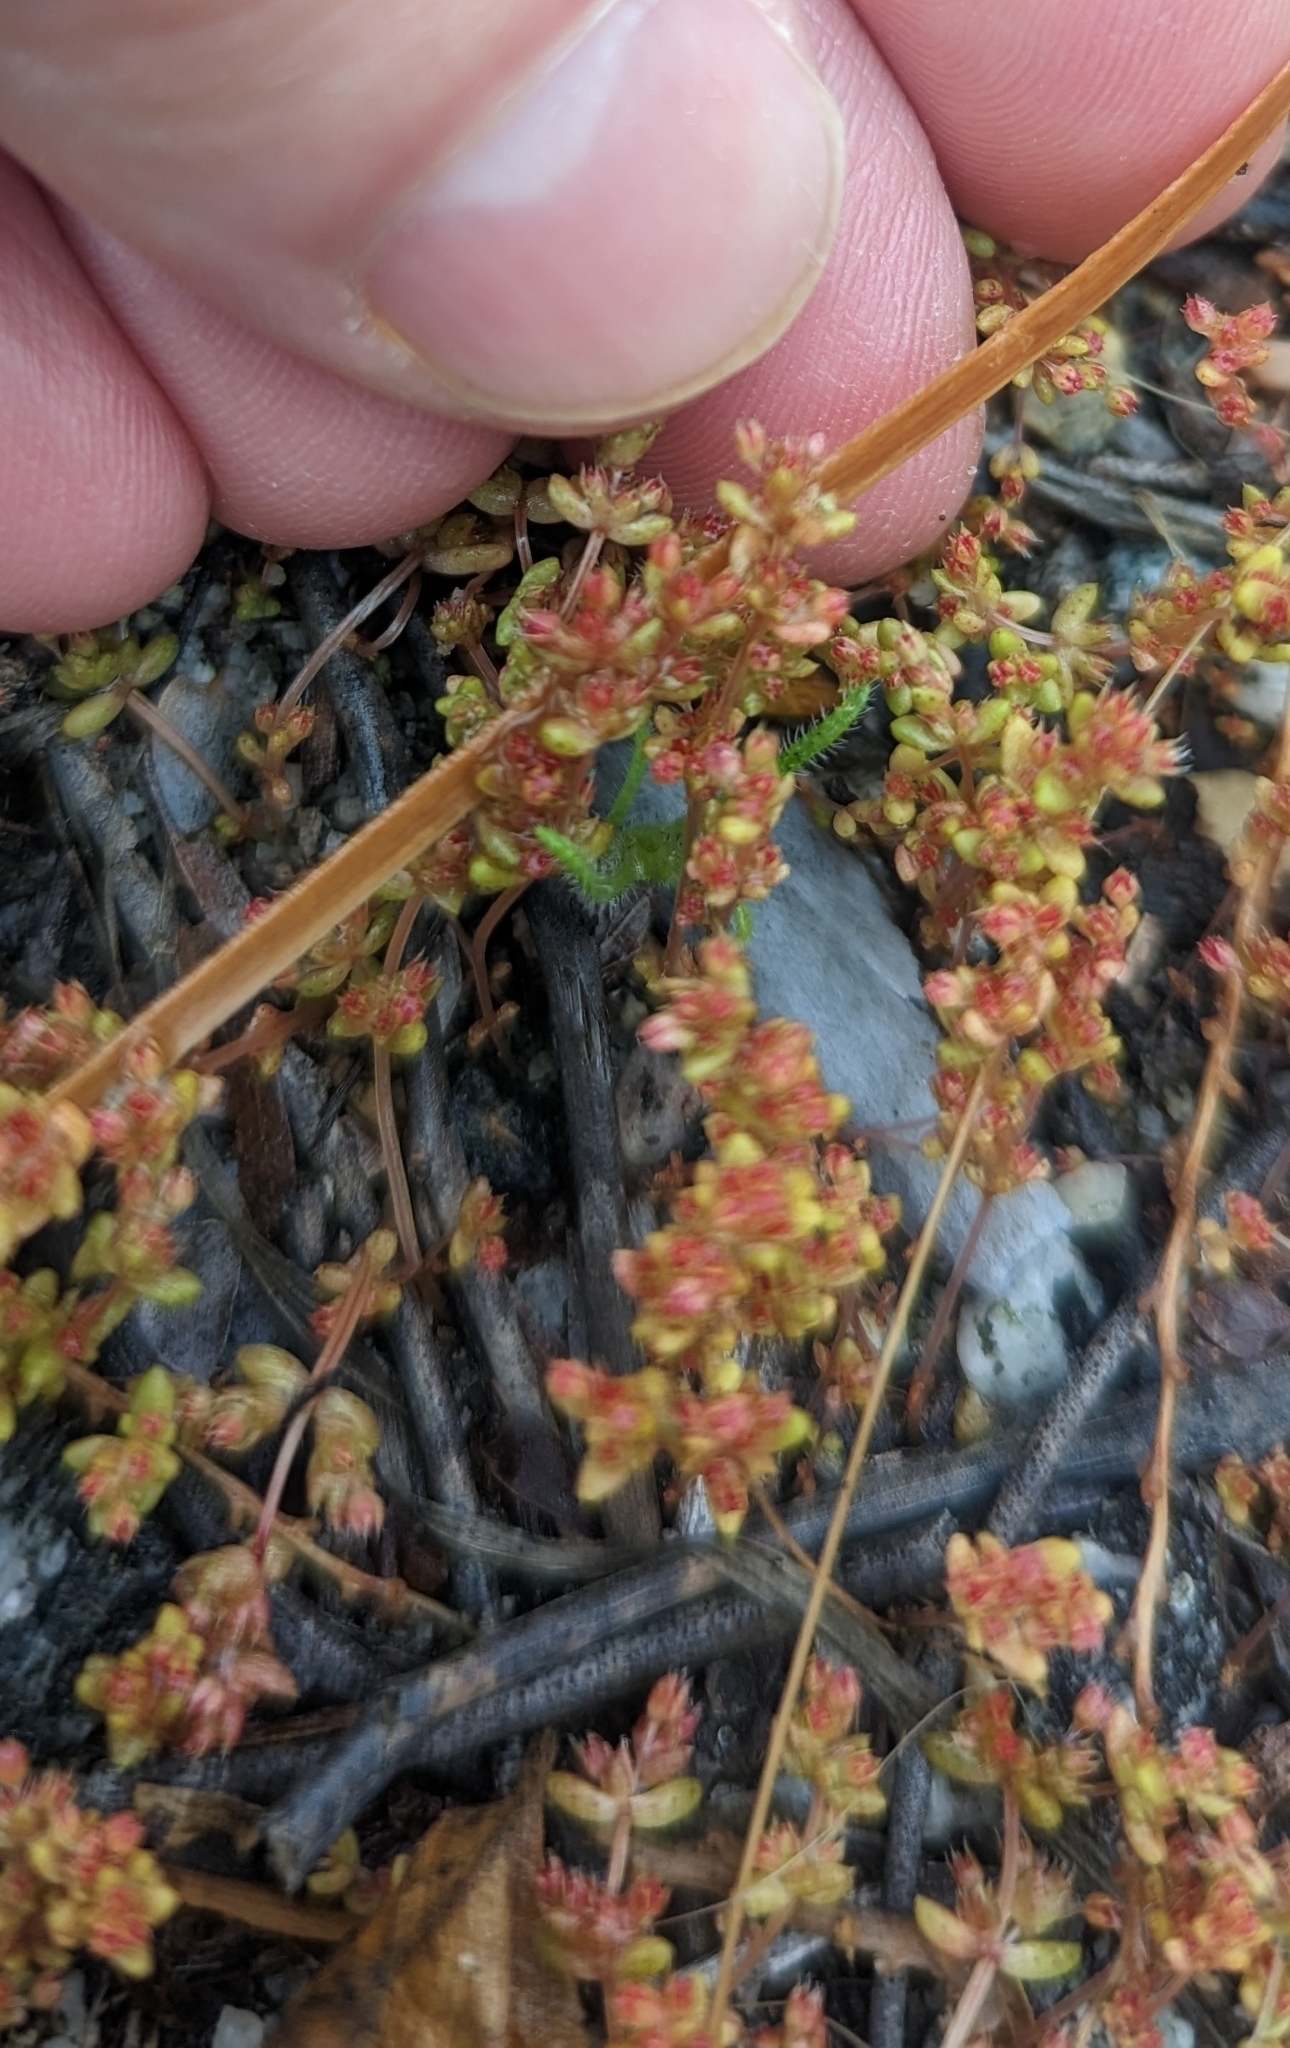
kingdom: Plantae
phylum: Tracheophyta
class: Magnoliopsida
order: Saxifragales
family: Crassulaceae
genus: Crassula
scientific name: Crassula connata
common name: Erect pygmyweed
